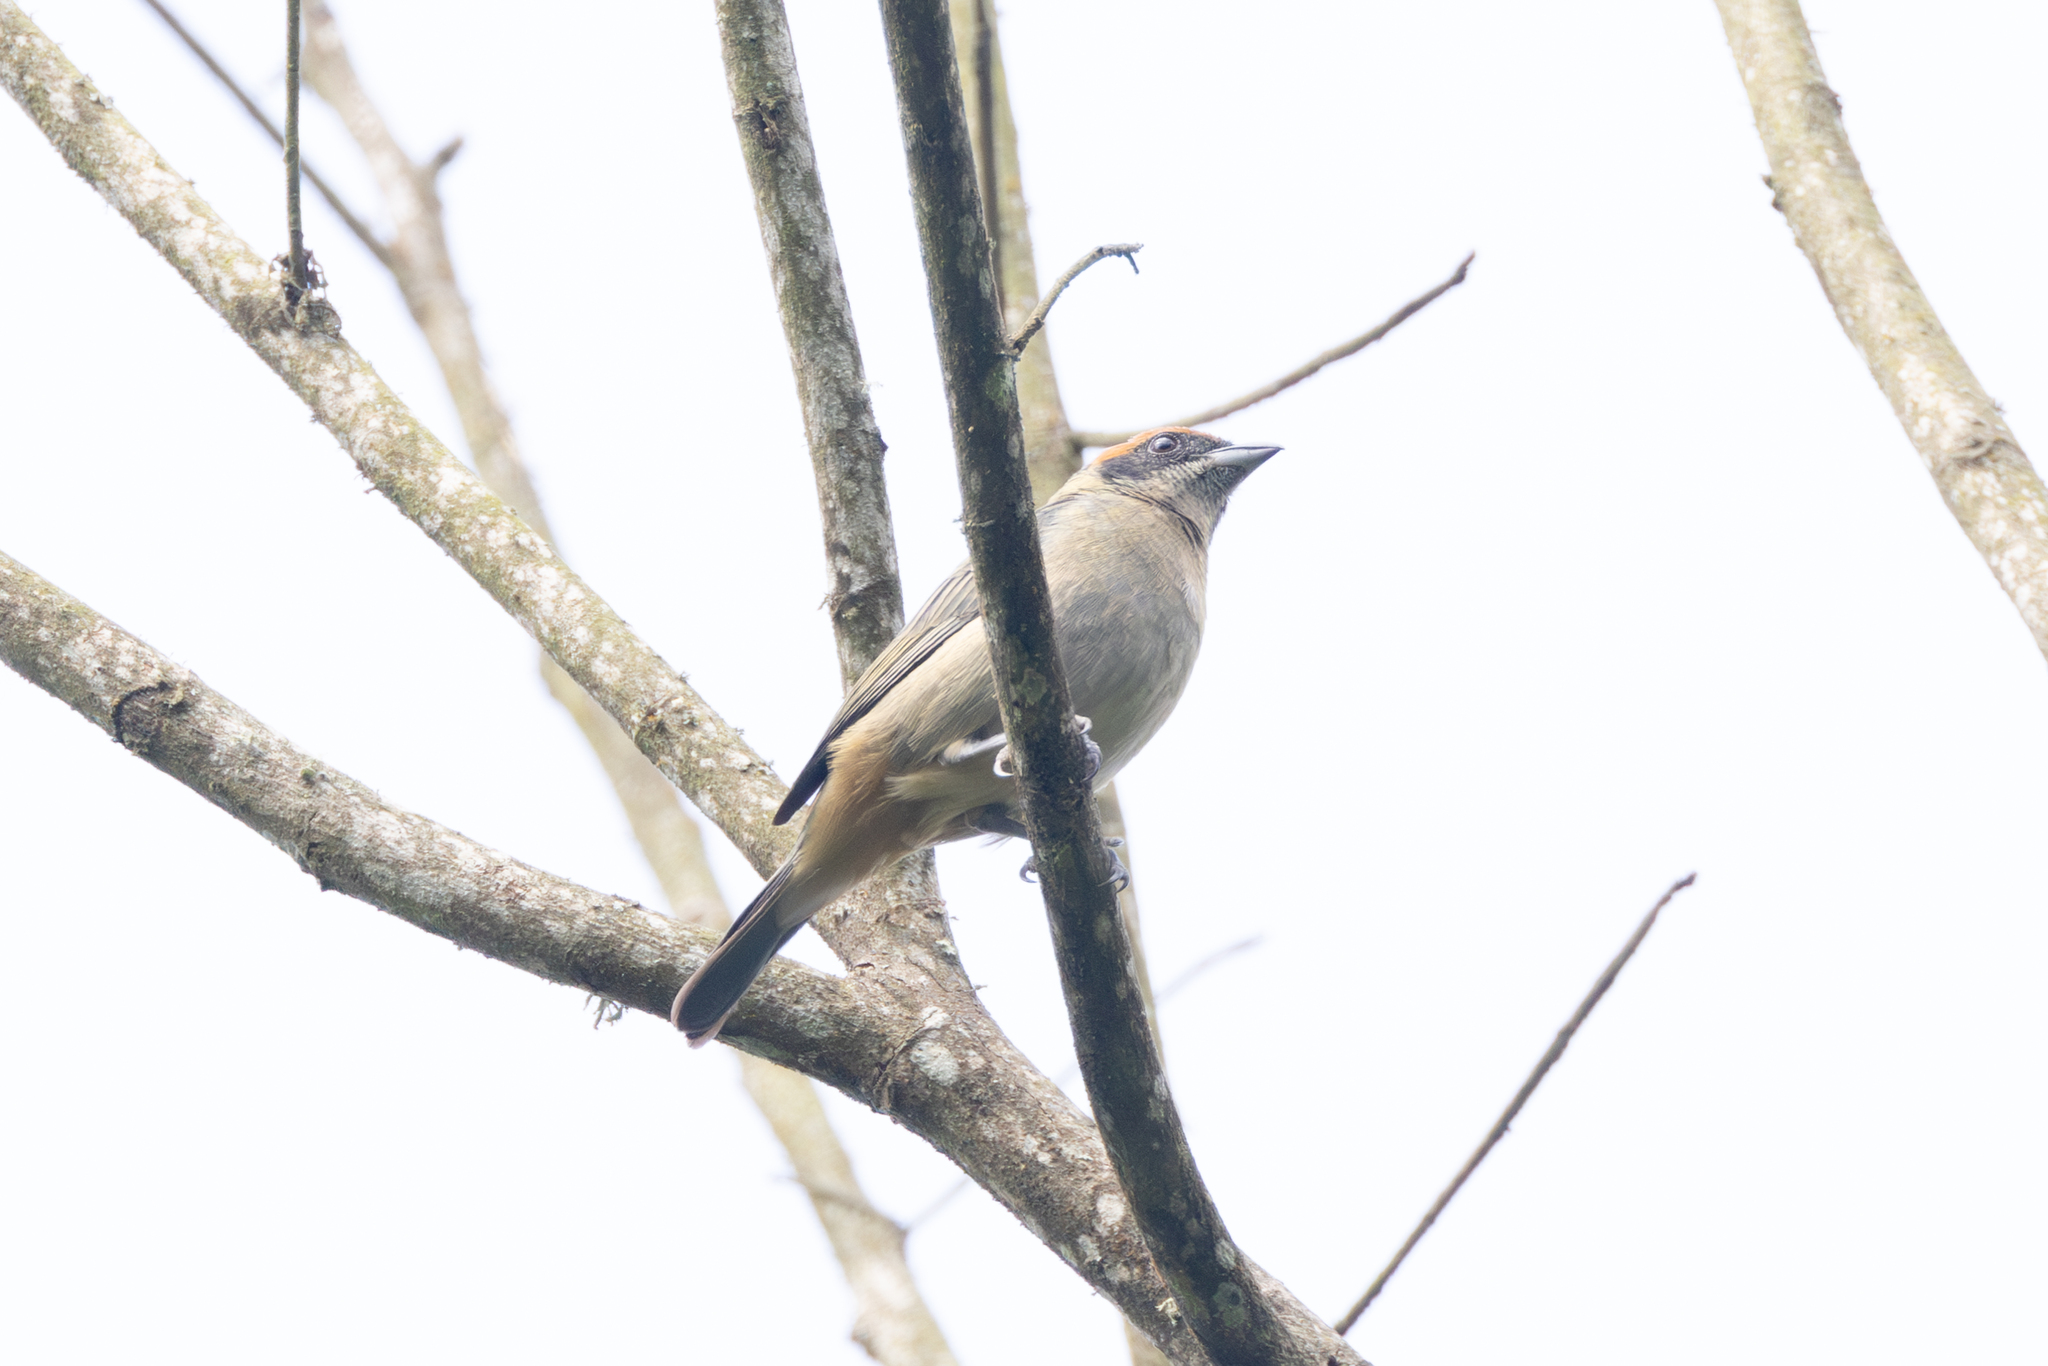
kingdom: Animalia
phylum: Chordata
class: Aves
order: Passeriformes
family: Thraupidae
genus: Stilpnia
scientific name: Stilpnia vitriolina
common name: Scrub tanager
